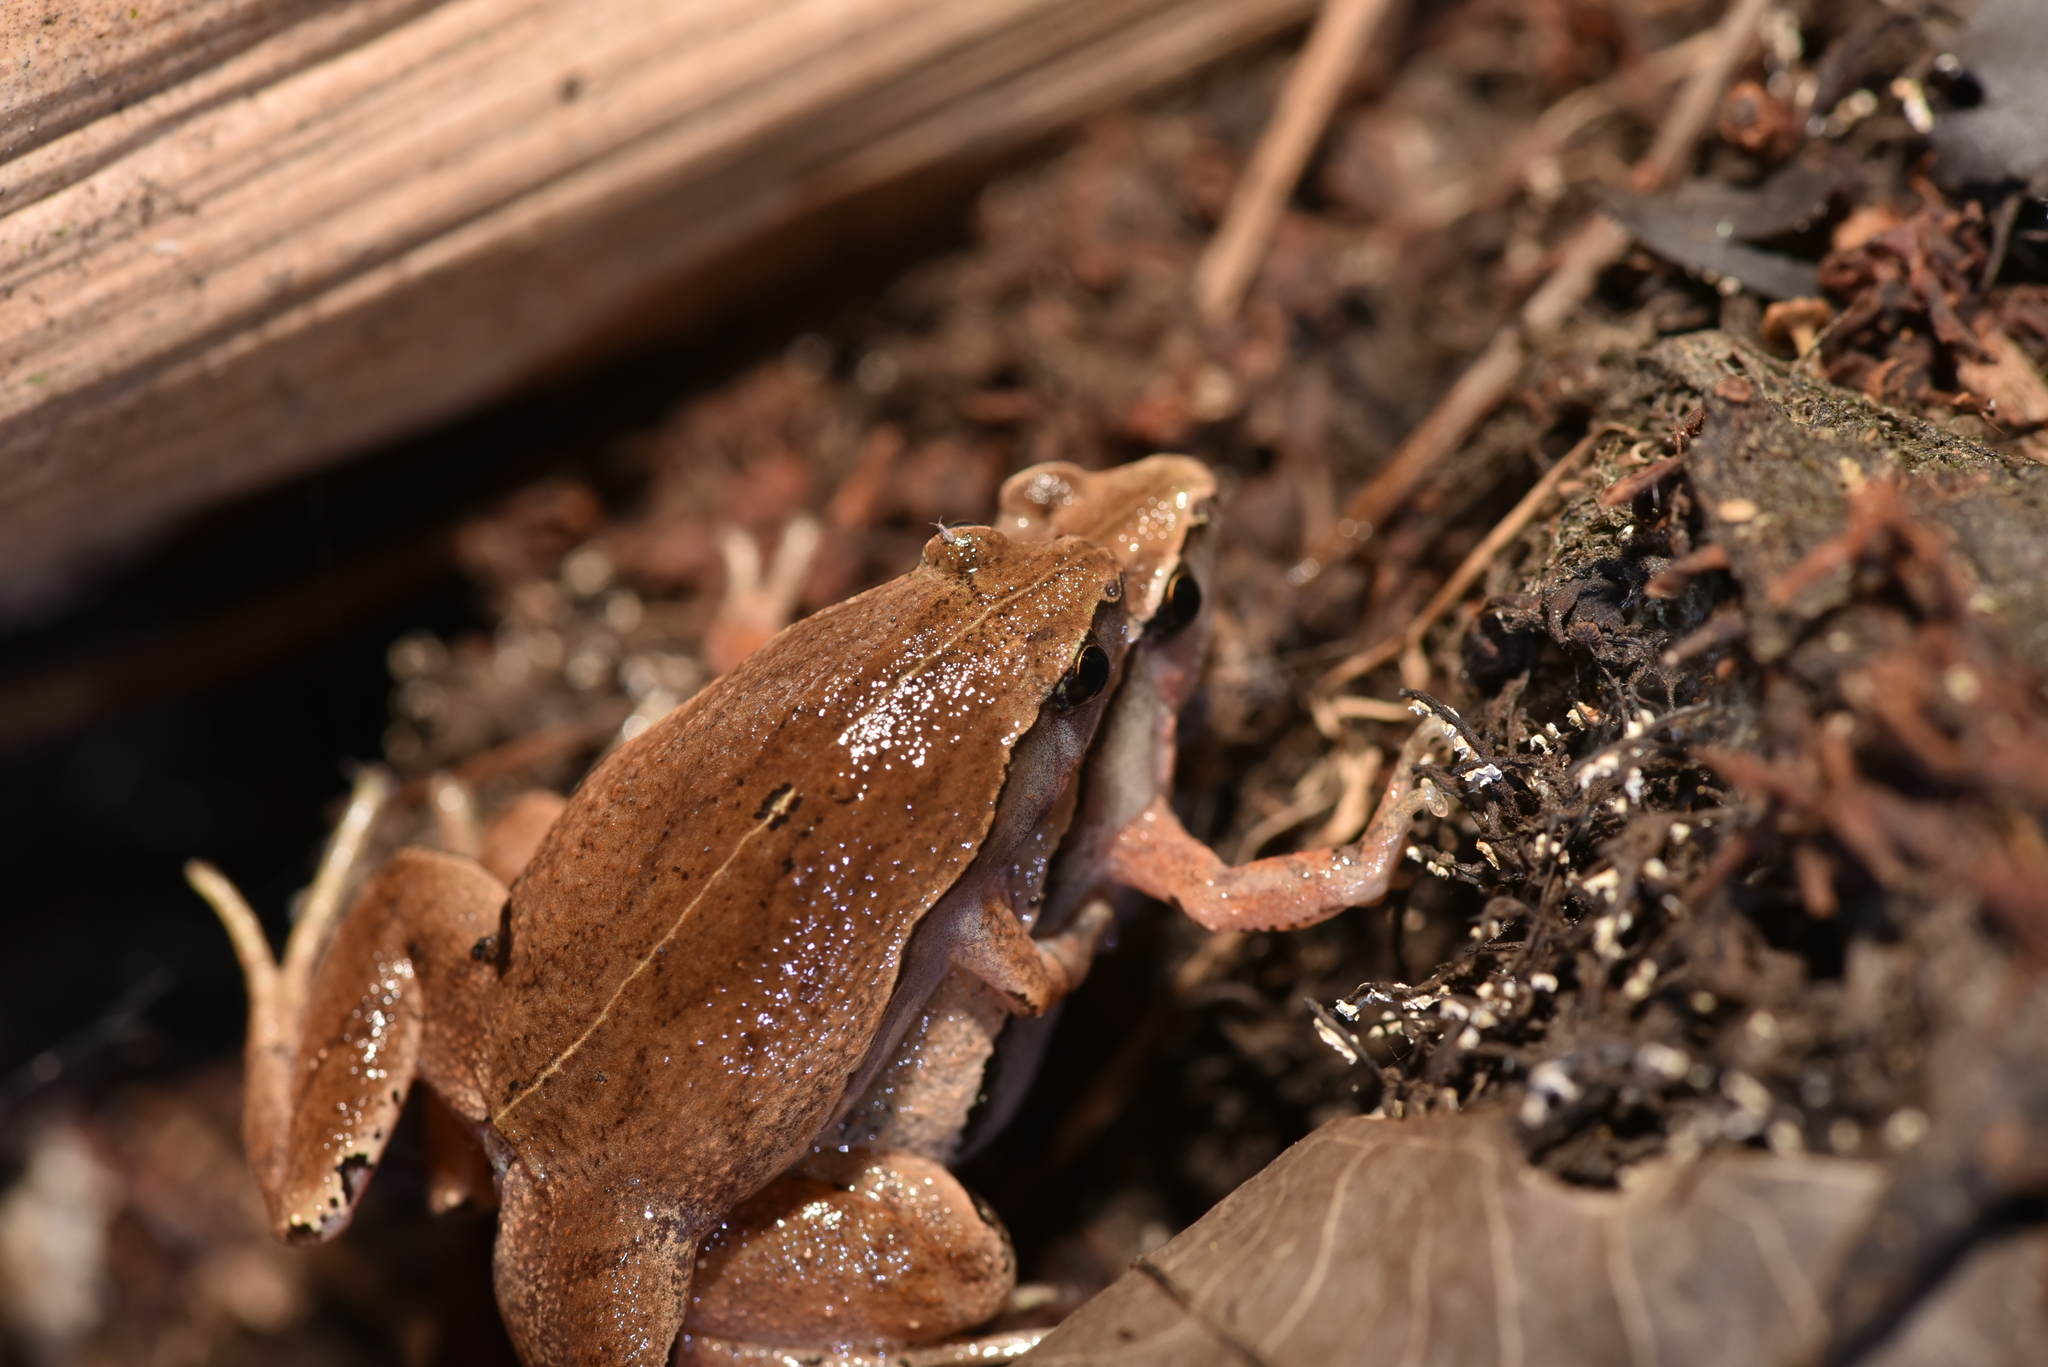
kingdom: Animalia
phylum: Chordata
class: Amphibia
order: Anura
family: Microhylidae
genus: Microhyla
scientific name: Microhyla heymonsi
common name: Taiwan rice frog,dark sided chorus frog
